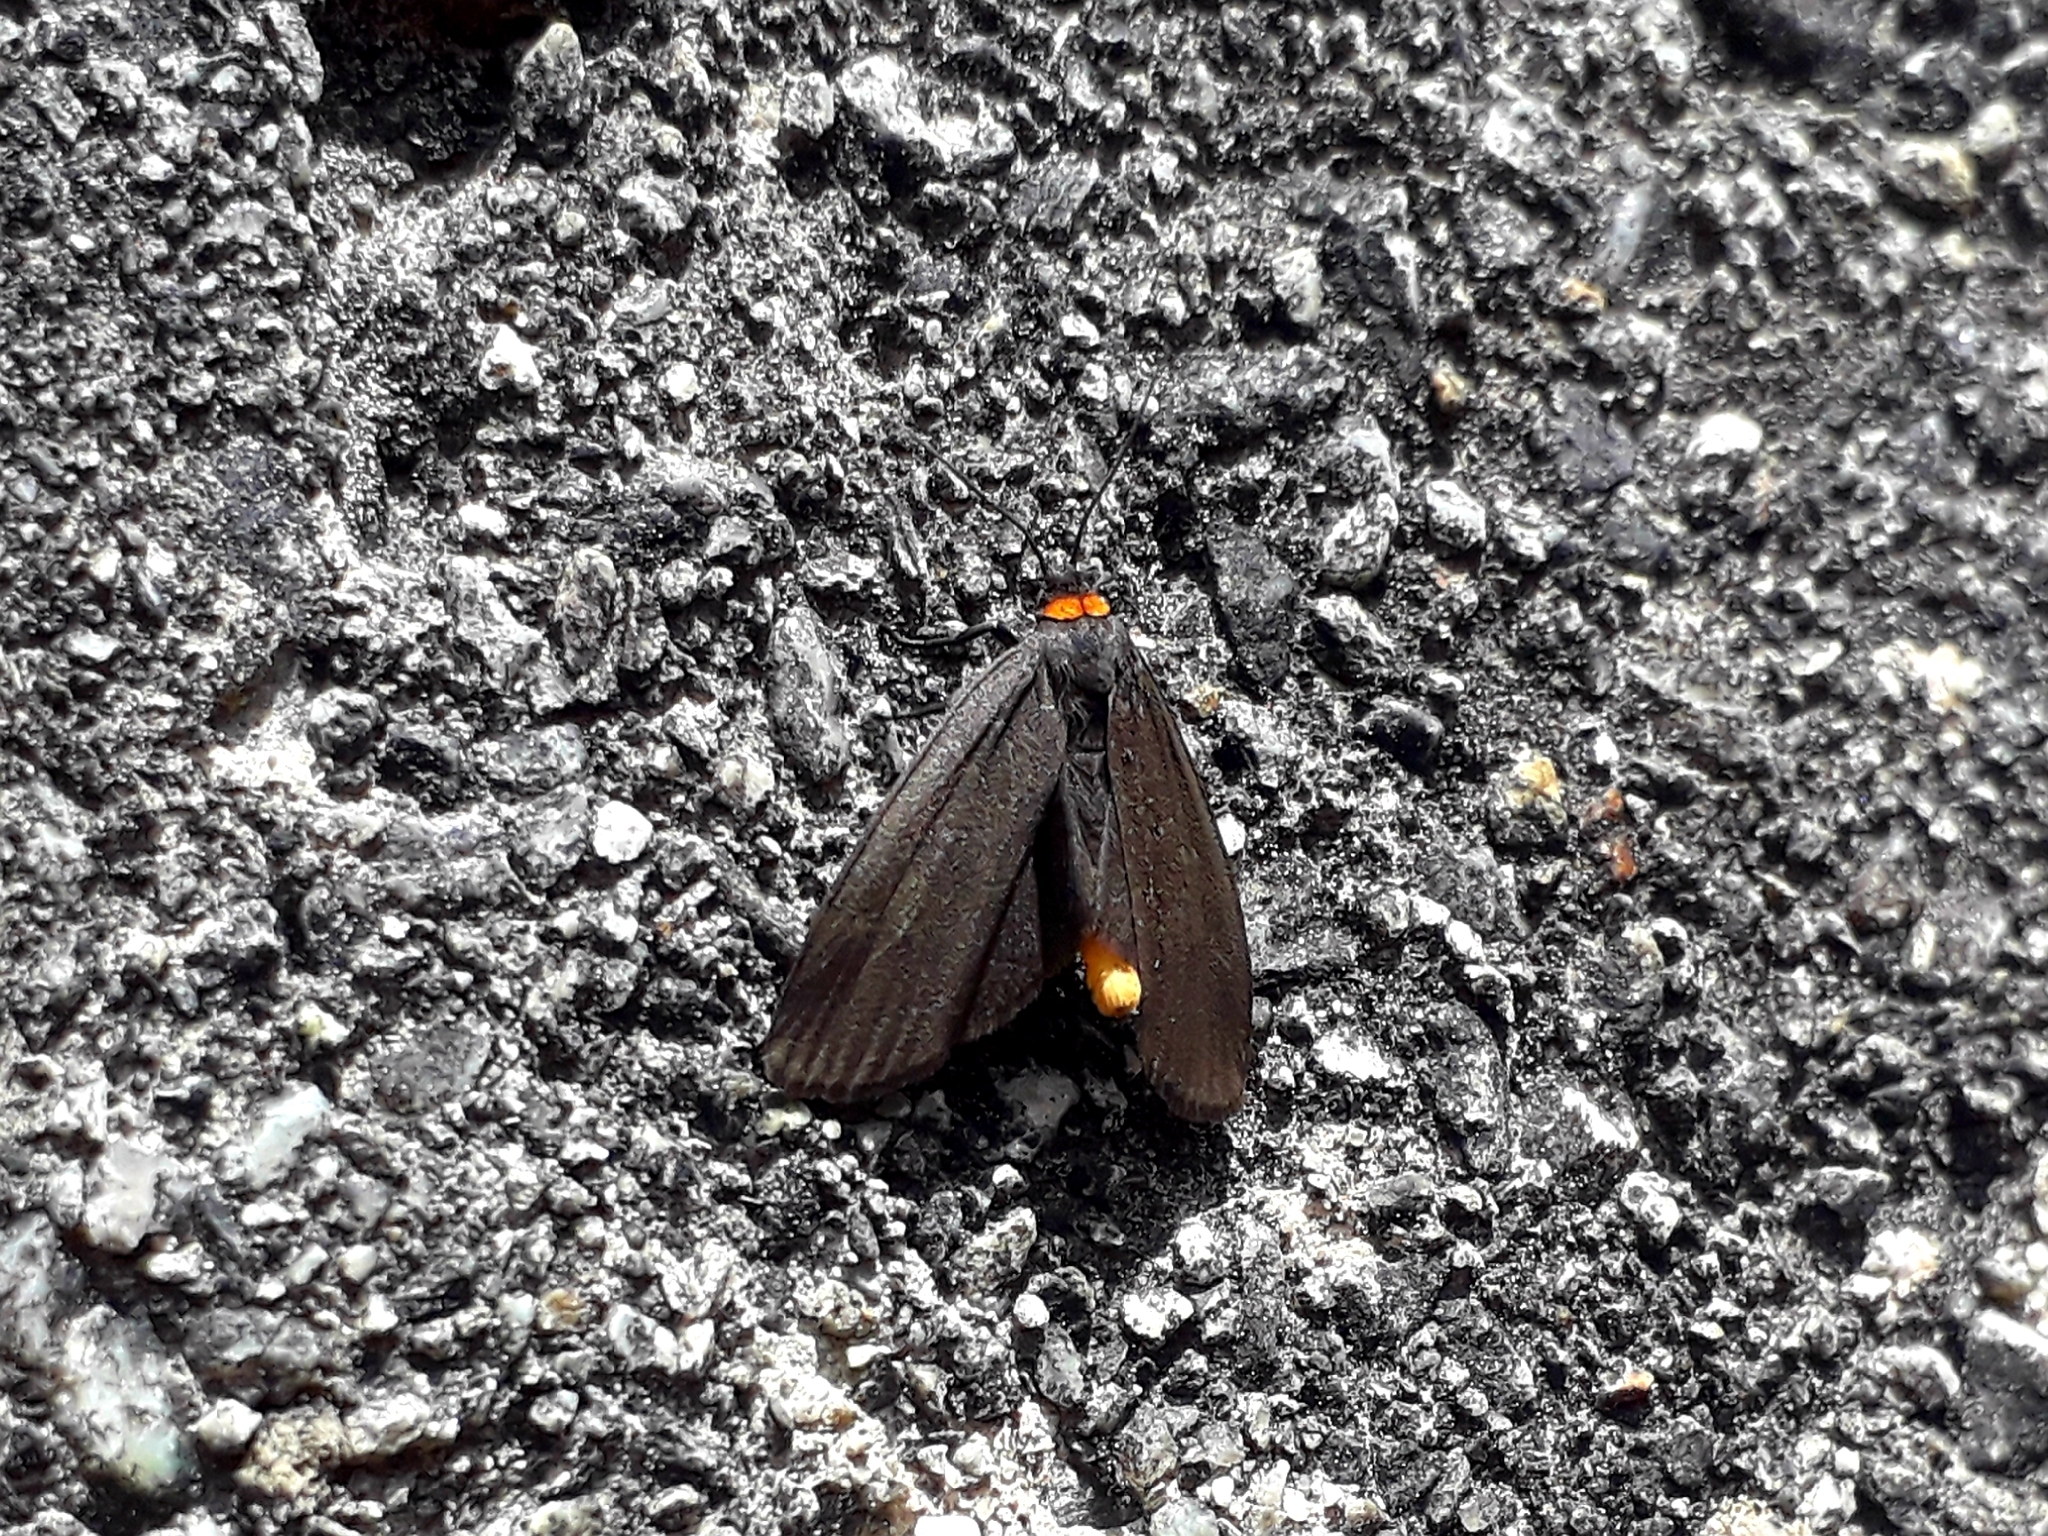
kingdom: Animalia
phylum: Arthropoda
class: Insecta
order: Lepidoptera
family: Erebidae
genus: Atolmis
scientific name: Atolmis rubricollis
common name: Red-necked footman
